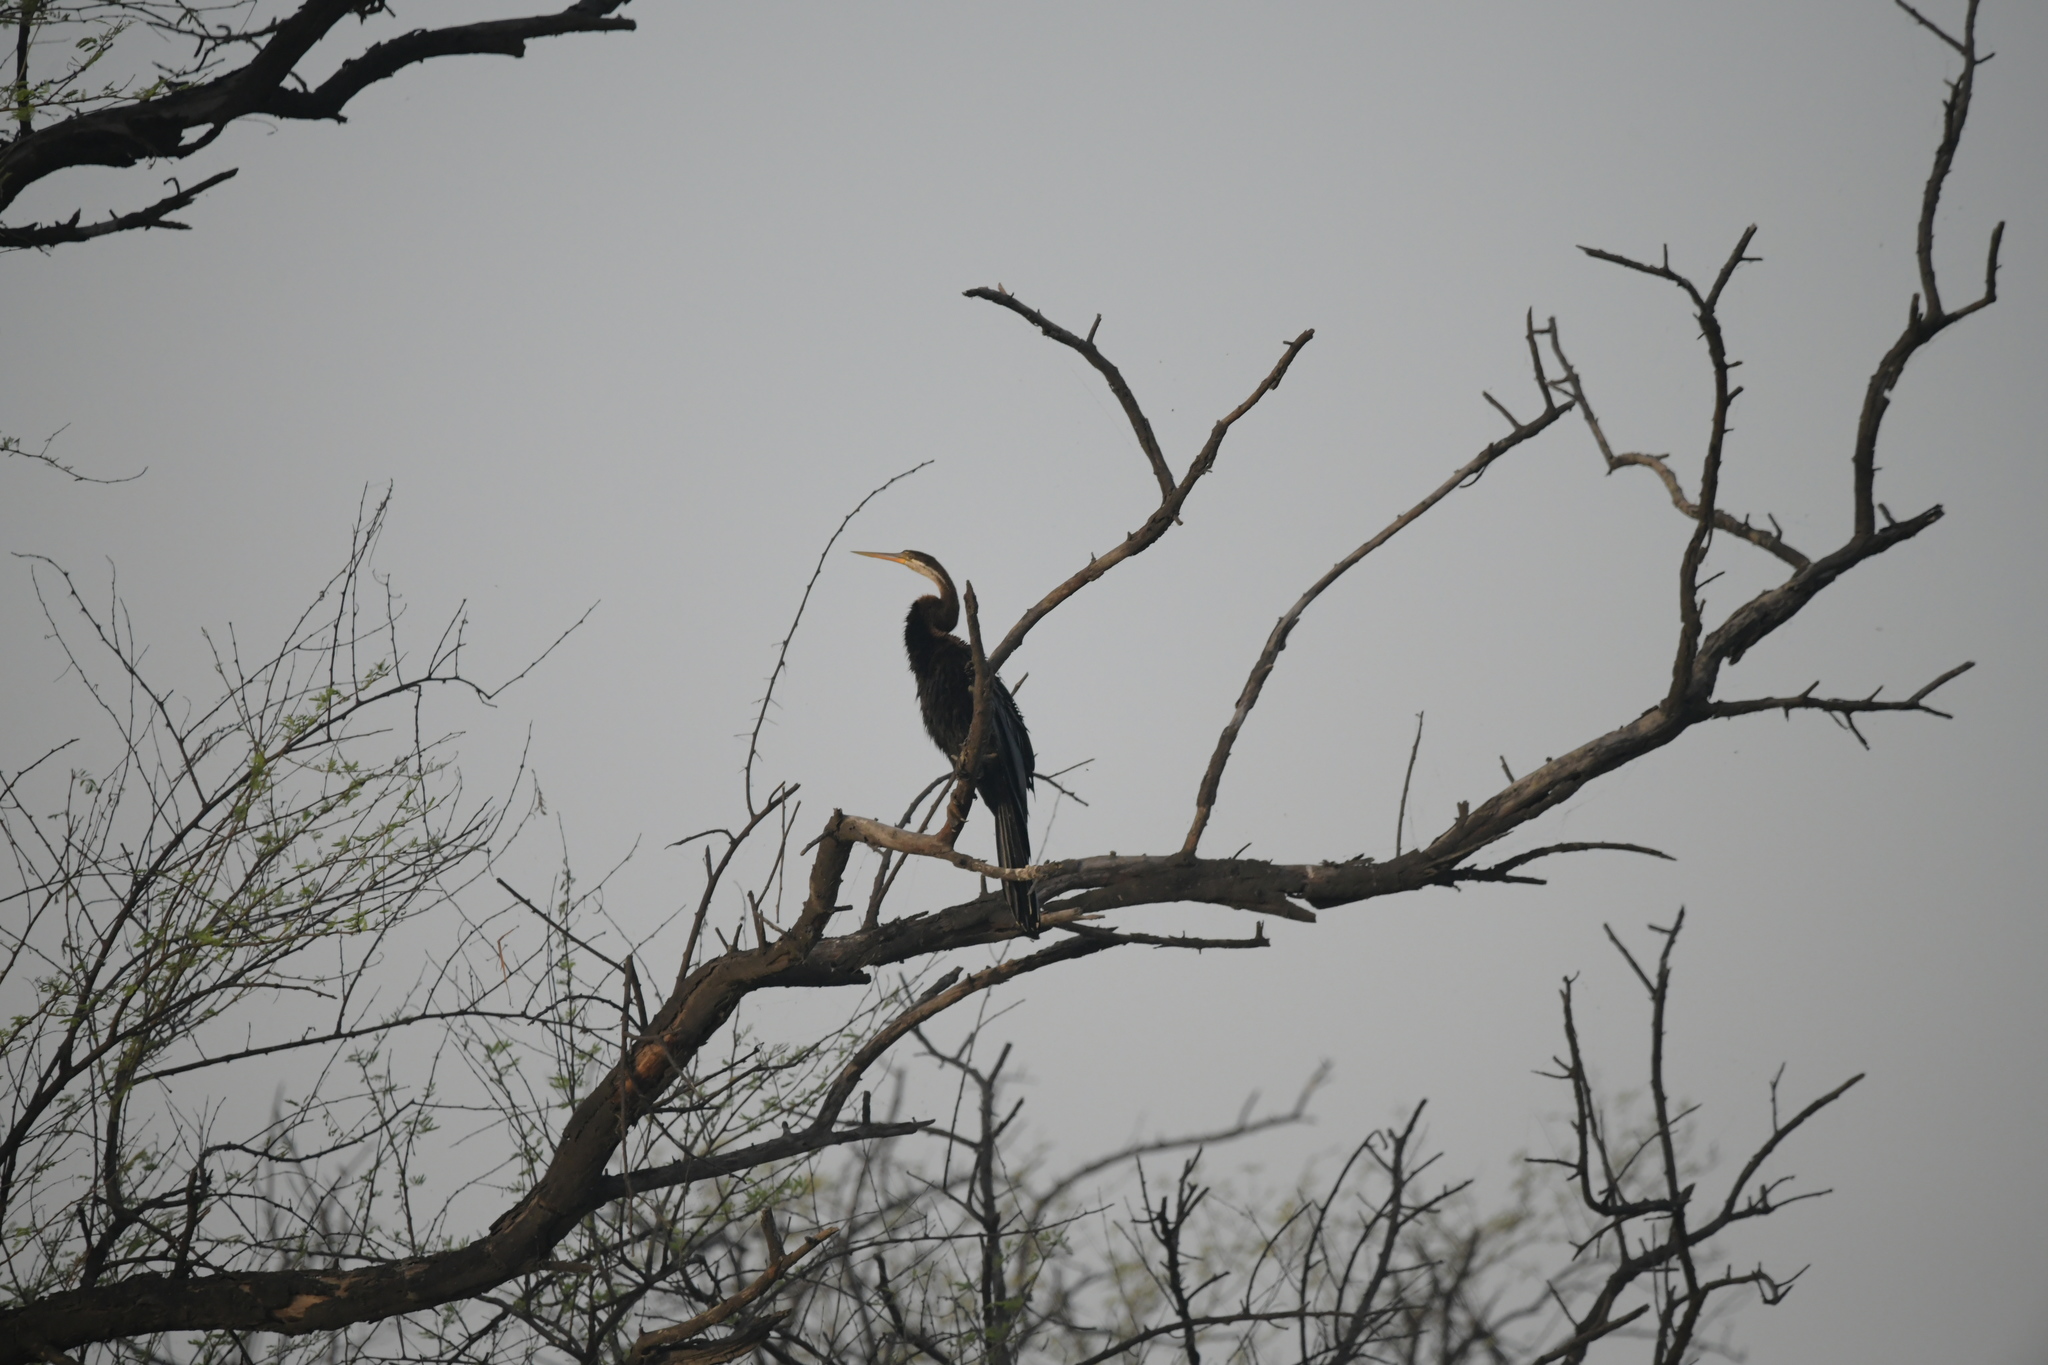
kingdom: Animalia
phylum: Chordata
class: Aves
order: Suliformes
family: Anhingidae
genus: Anhinga
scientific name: Anhinga melanogaster
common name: Oriental darter
